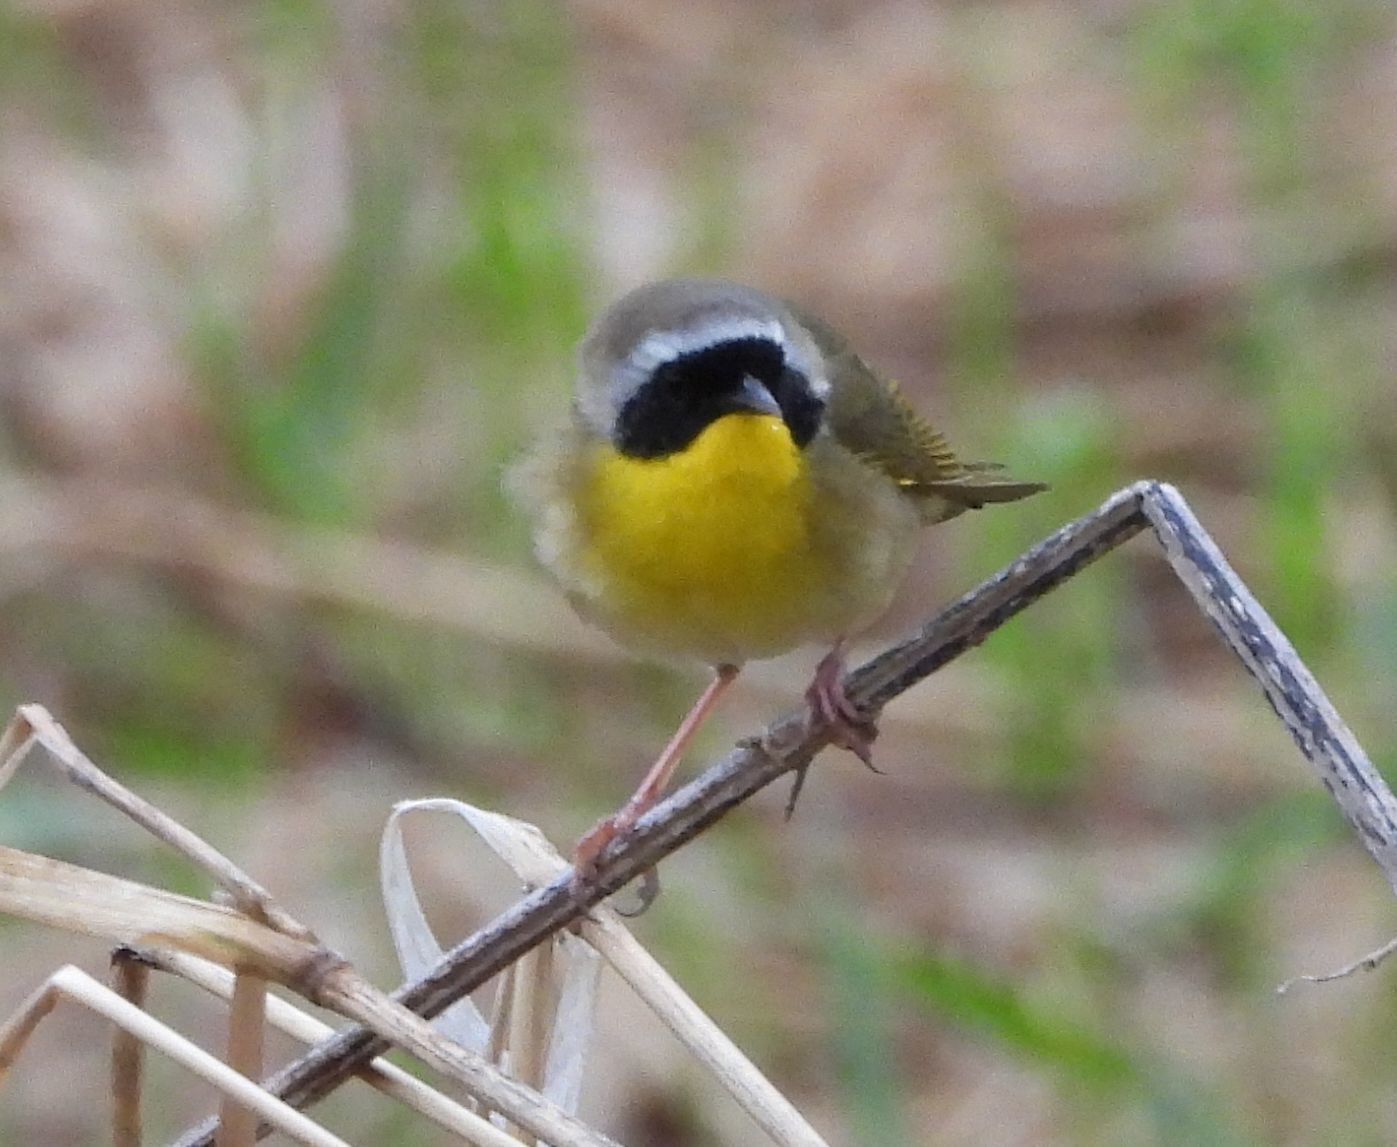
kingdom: Animalia
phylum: Chordata
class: Aves
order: Passeriformes
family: Parulidae
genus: Geothlypis
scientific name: Geothlypis trichas
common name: Common yellowthroat
